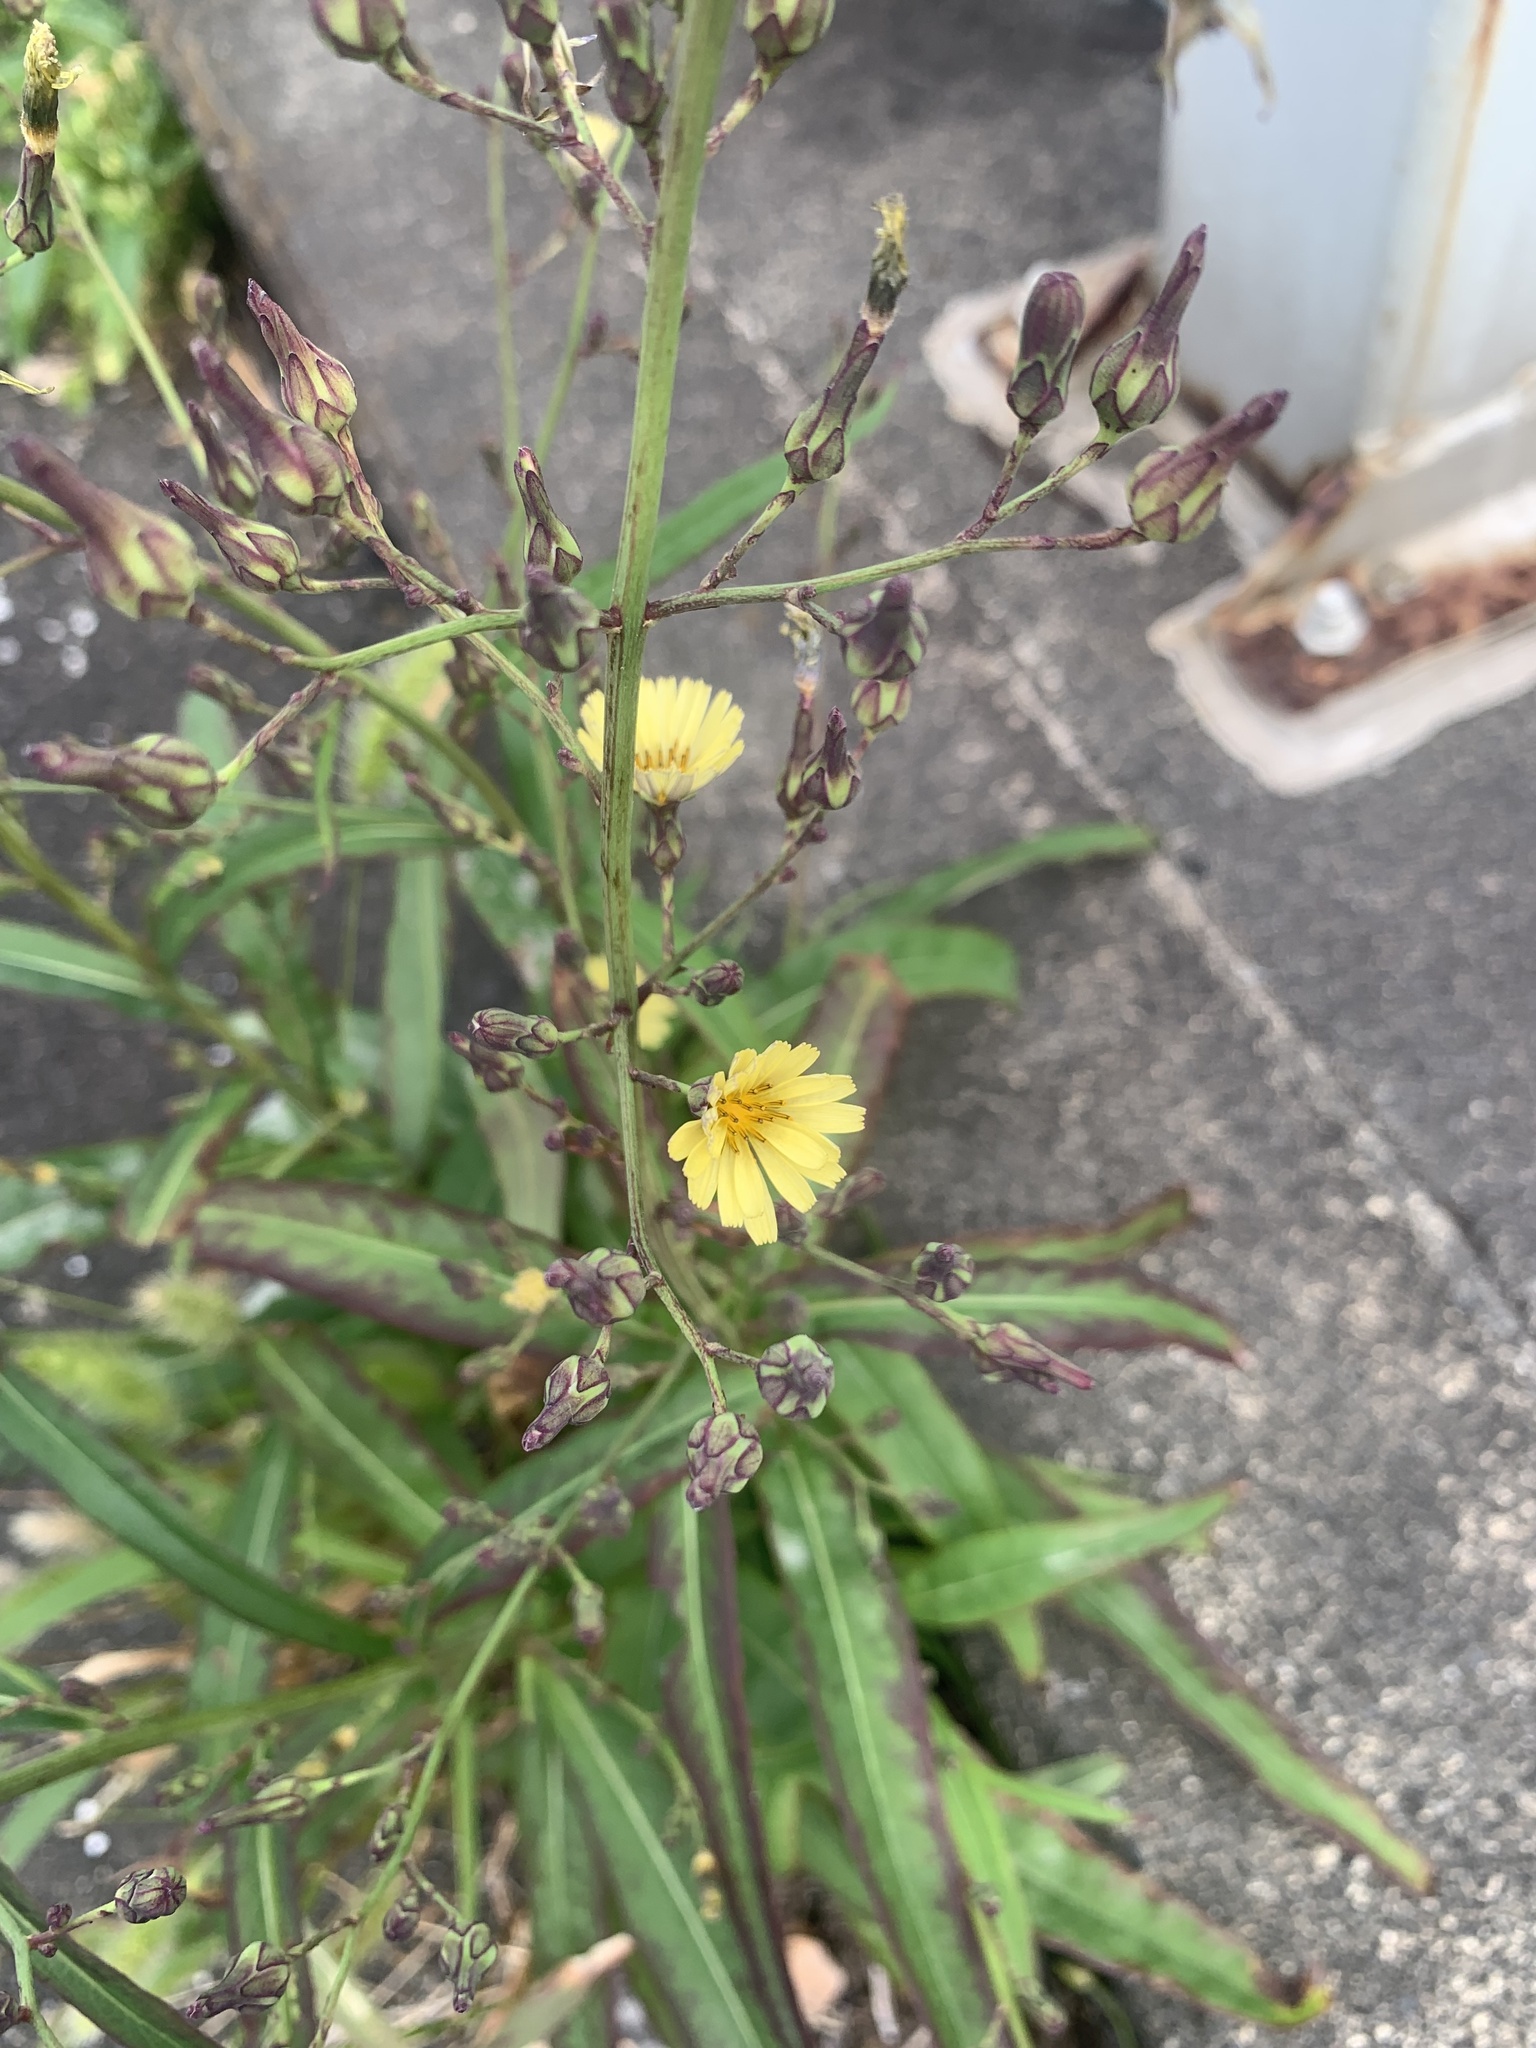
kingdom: Plantae
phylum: Tracheophyta
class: Magnoliopsida
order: Asterales
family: Asteraceae
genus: Lactuca
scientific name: Lactuca indica
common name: Wild lettuce
